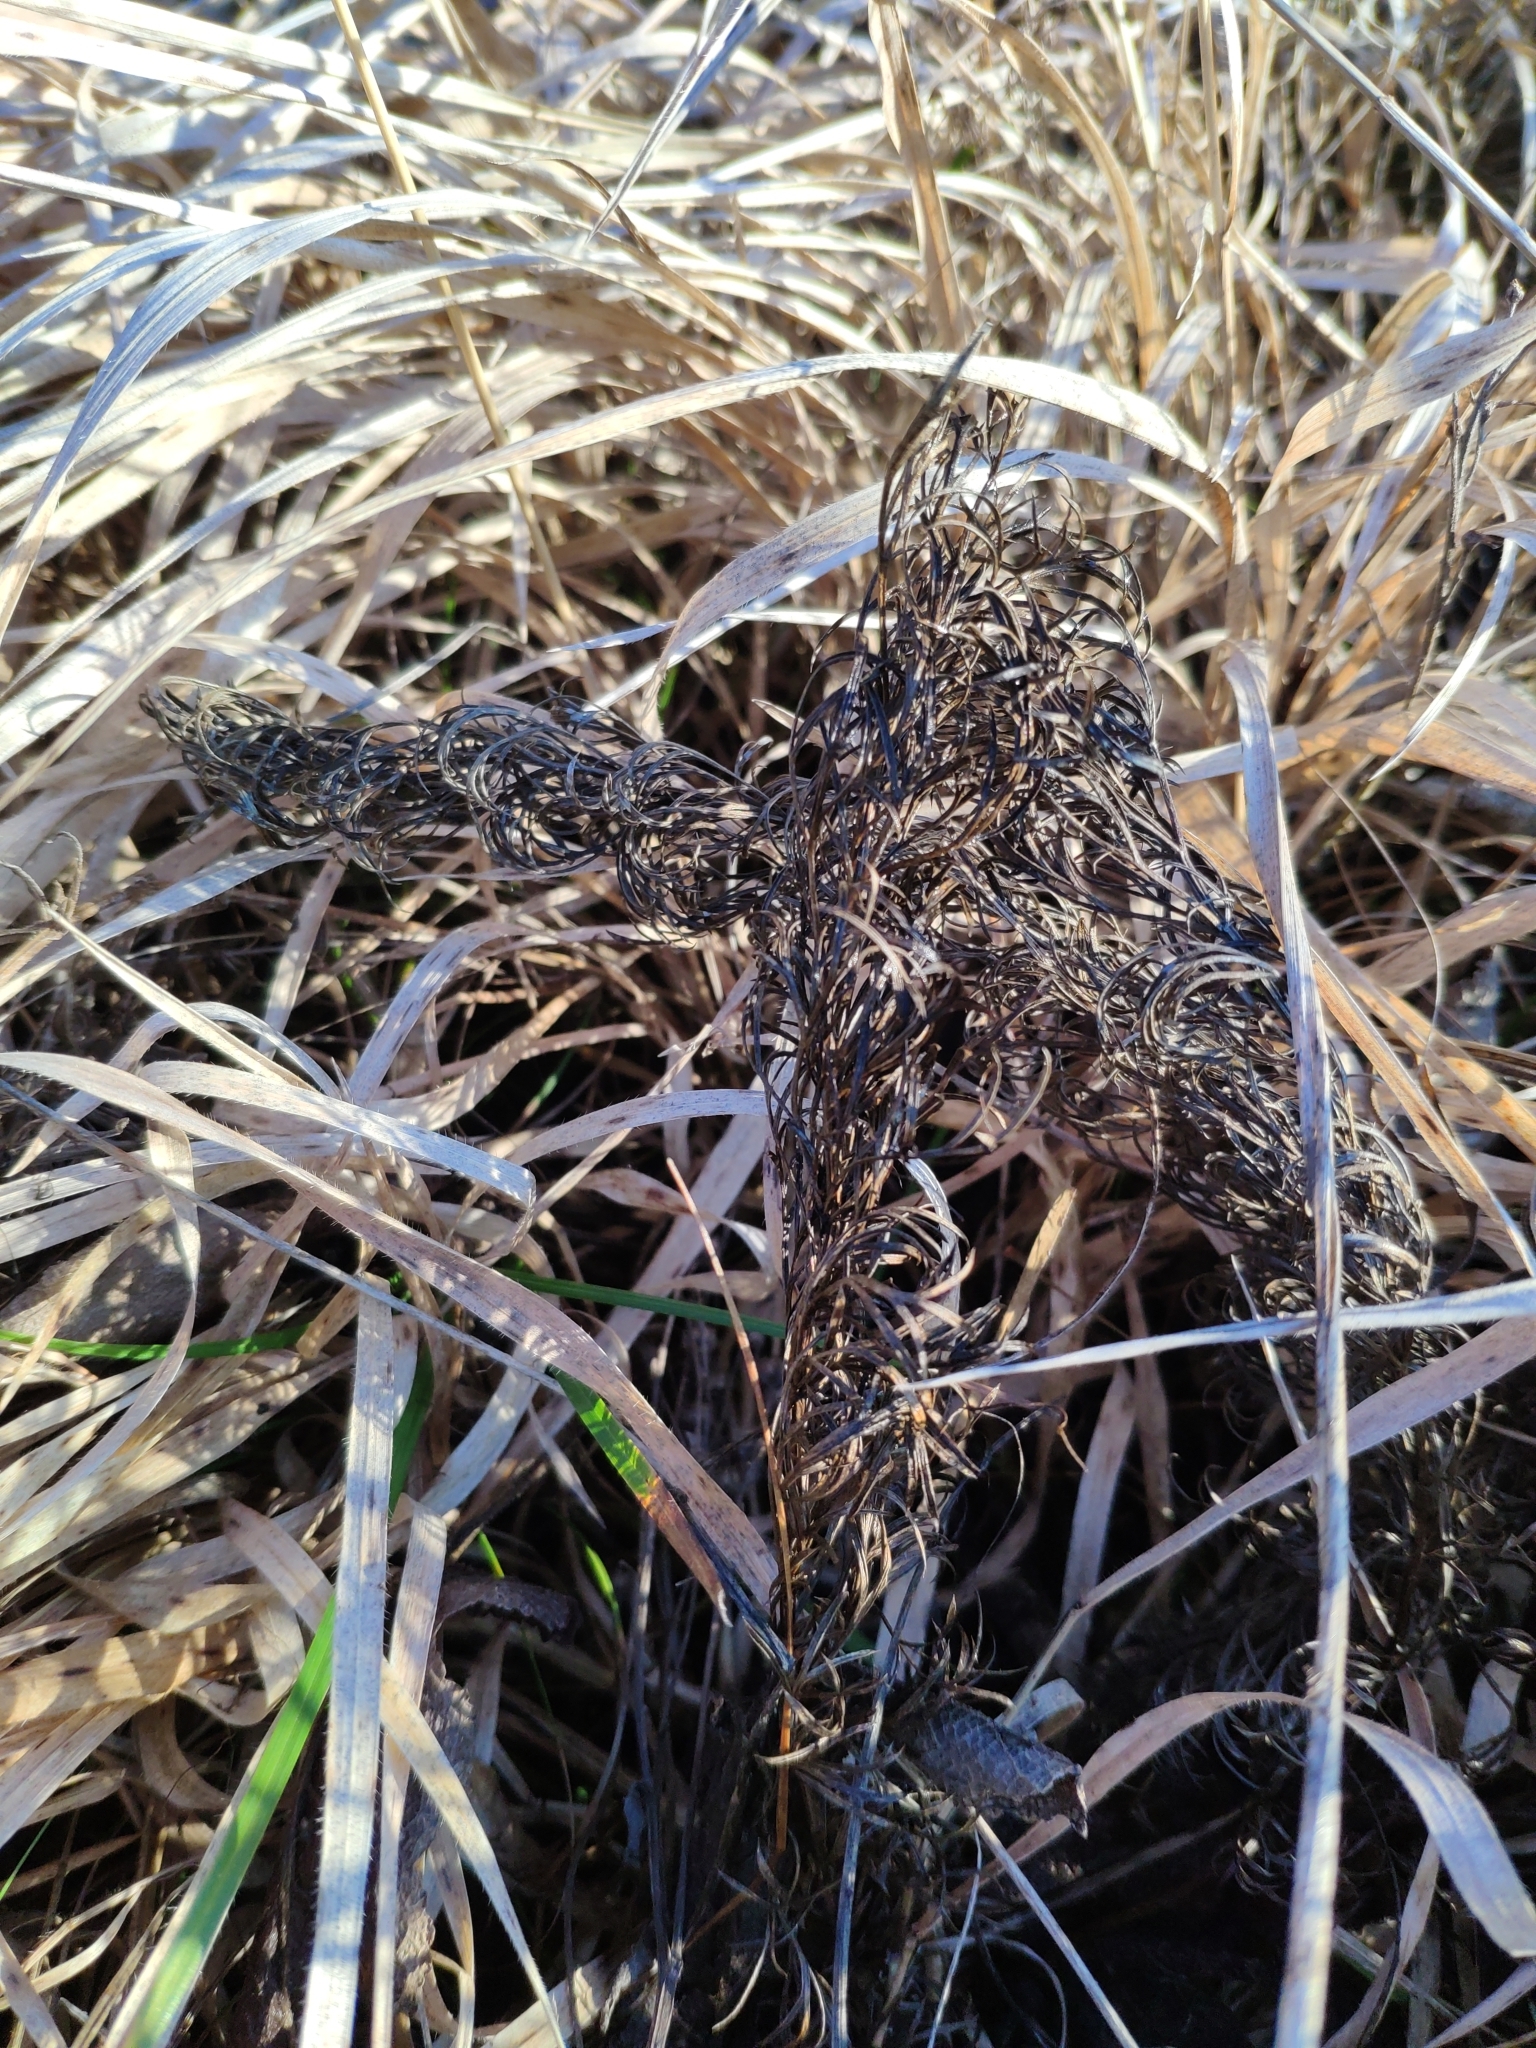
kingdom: Plantae
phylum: Tracheophyta
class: Magnoliopsida
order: Ranunculales
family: Ranunculaceae
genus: Adonis
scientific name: Adonis vernalis
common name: Yellow pheasants-eye
